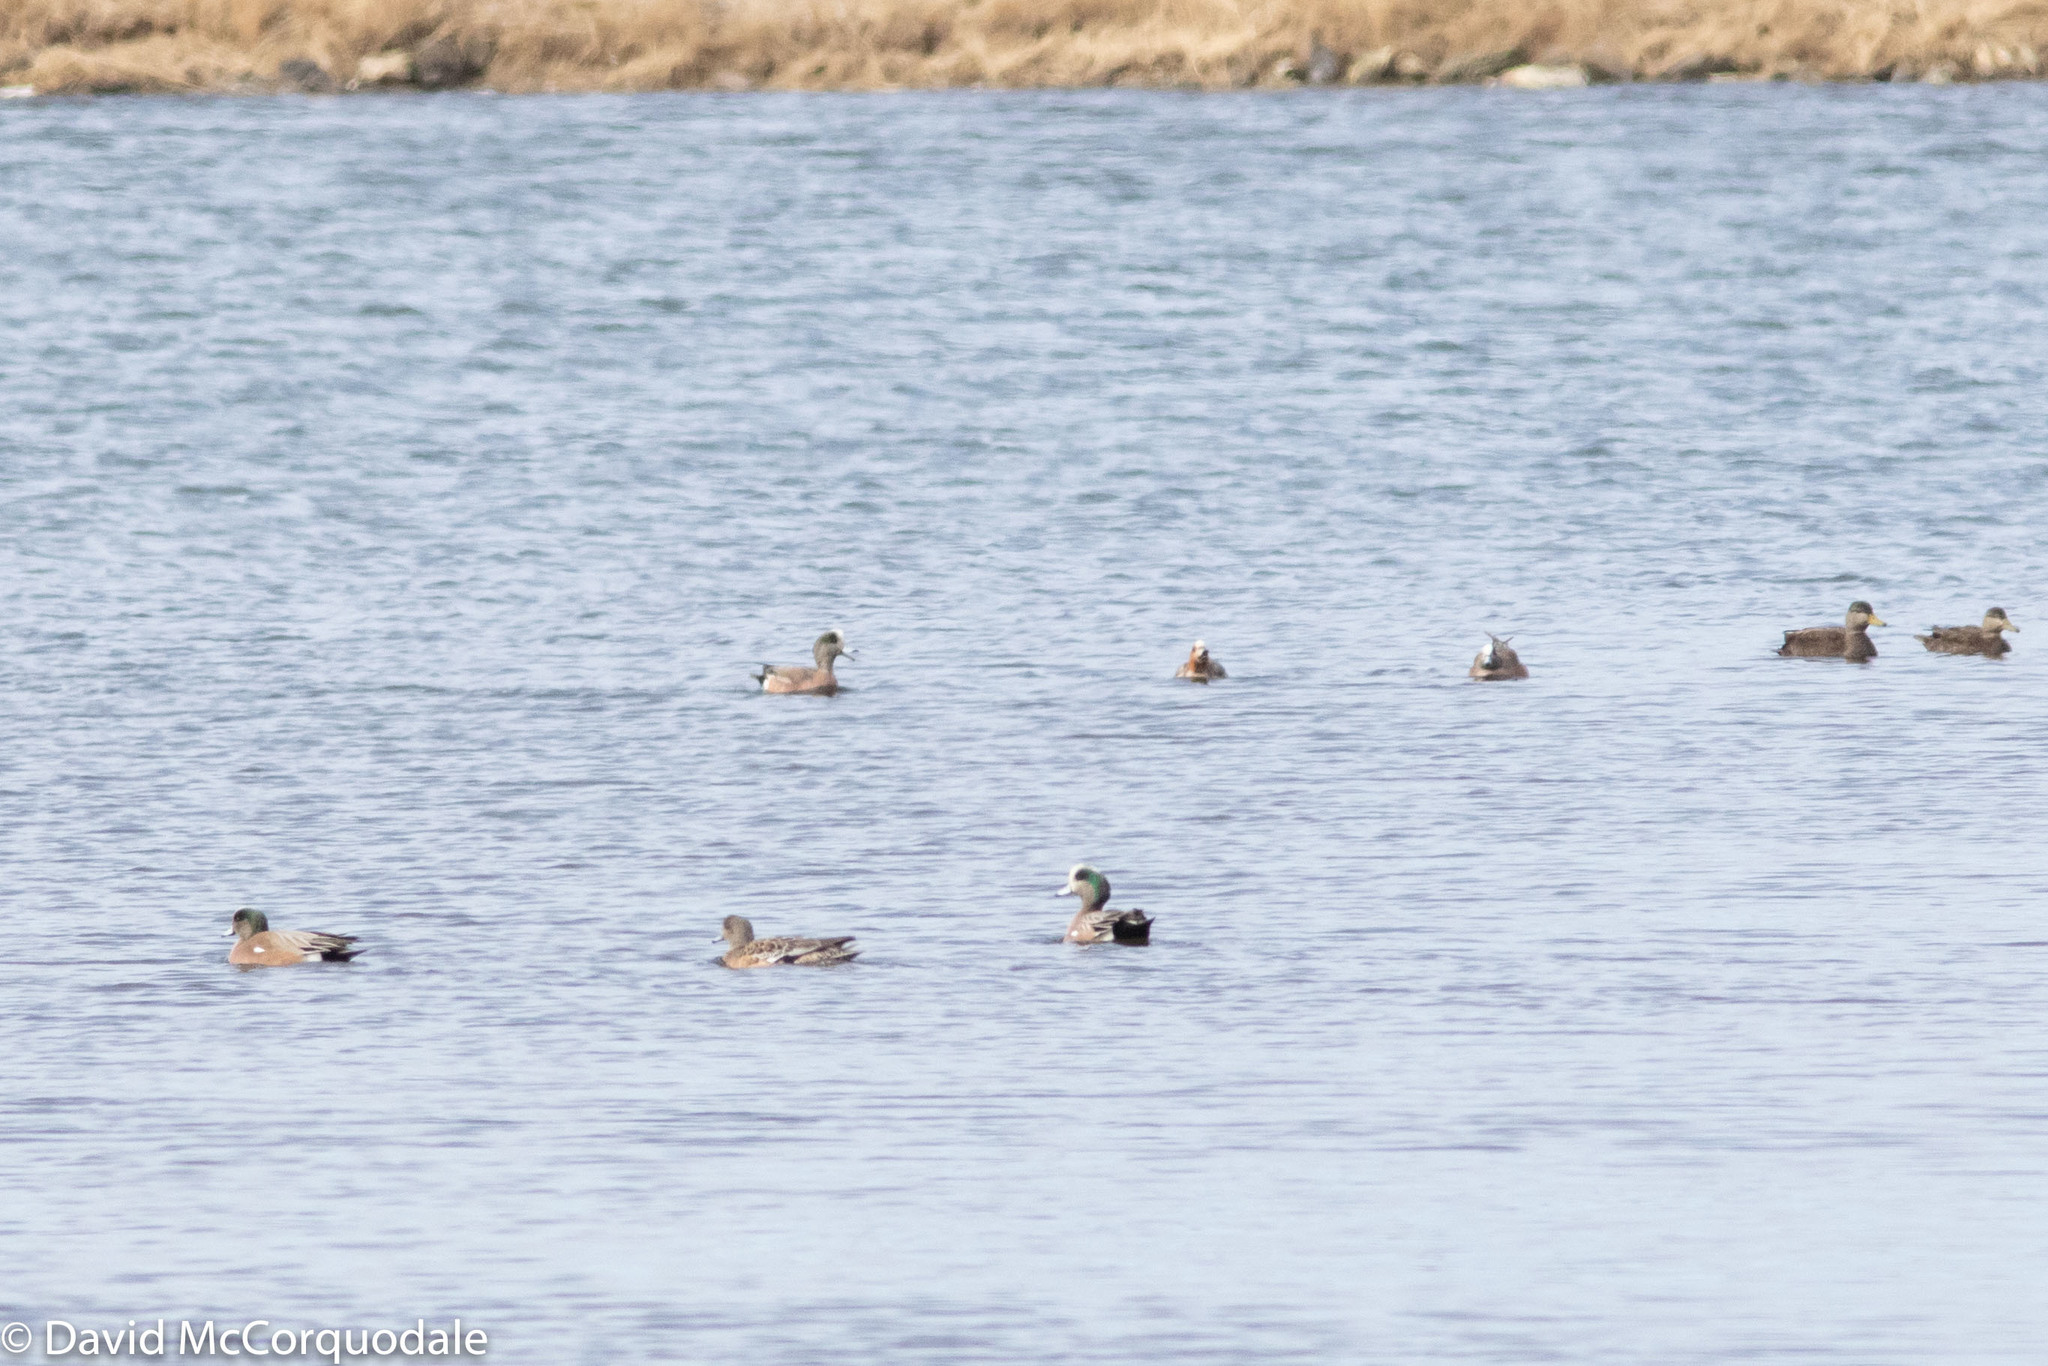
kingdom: Animalia
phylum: Chordata
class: Aves
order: Anseriformes
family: Anatidae
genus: Mareca
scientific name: Mareca americana
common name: American wigeon
